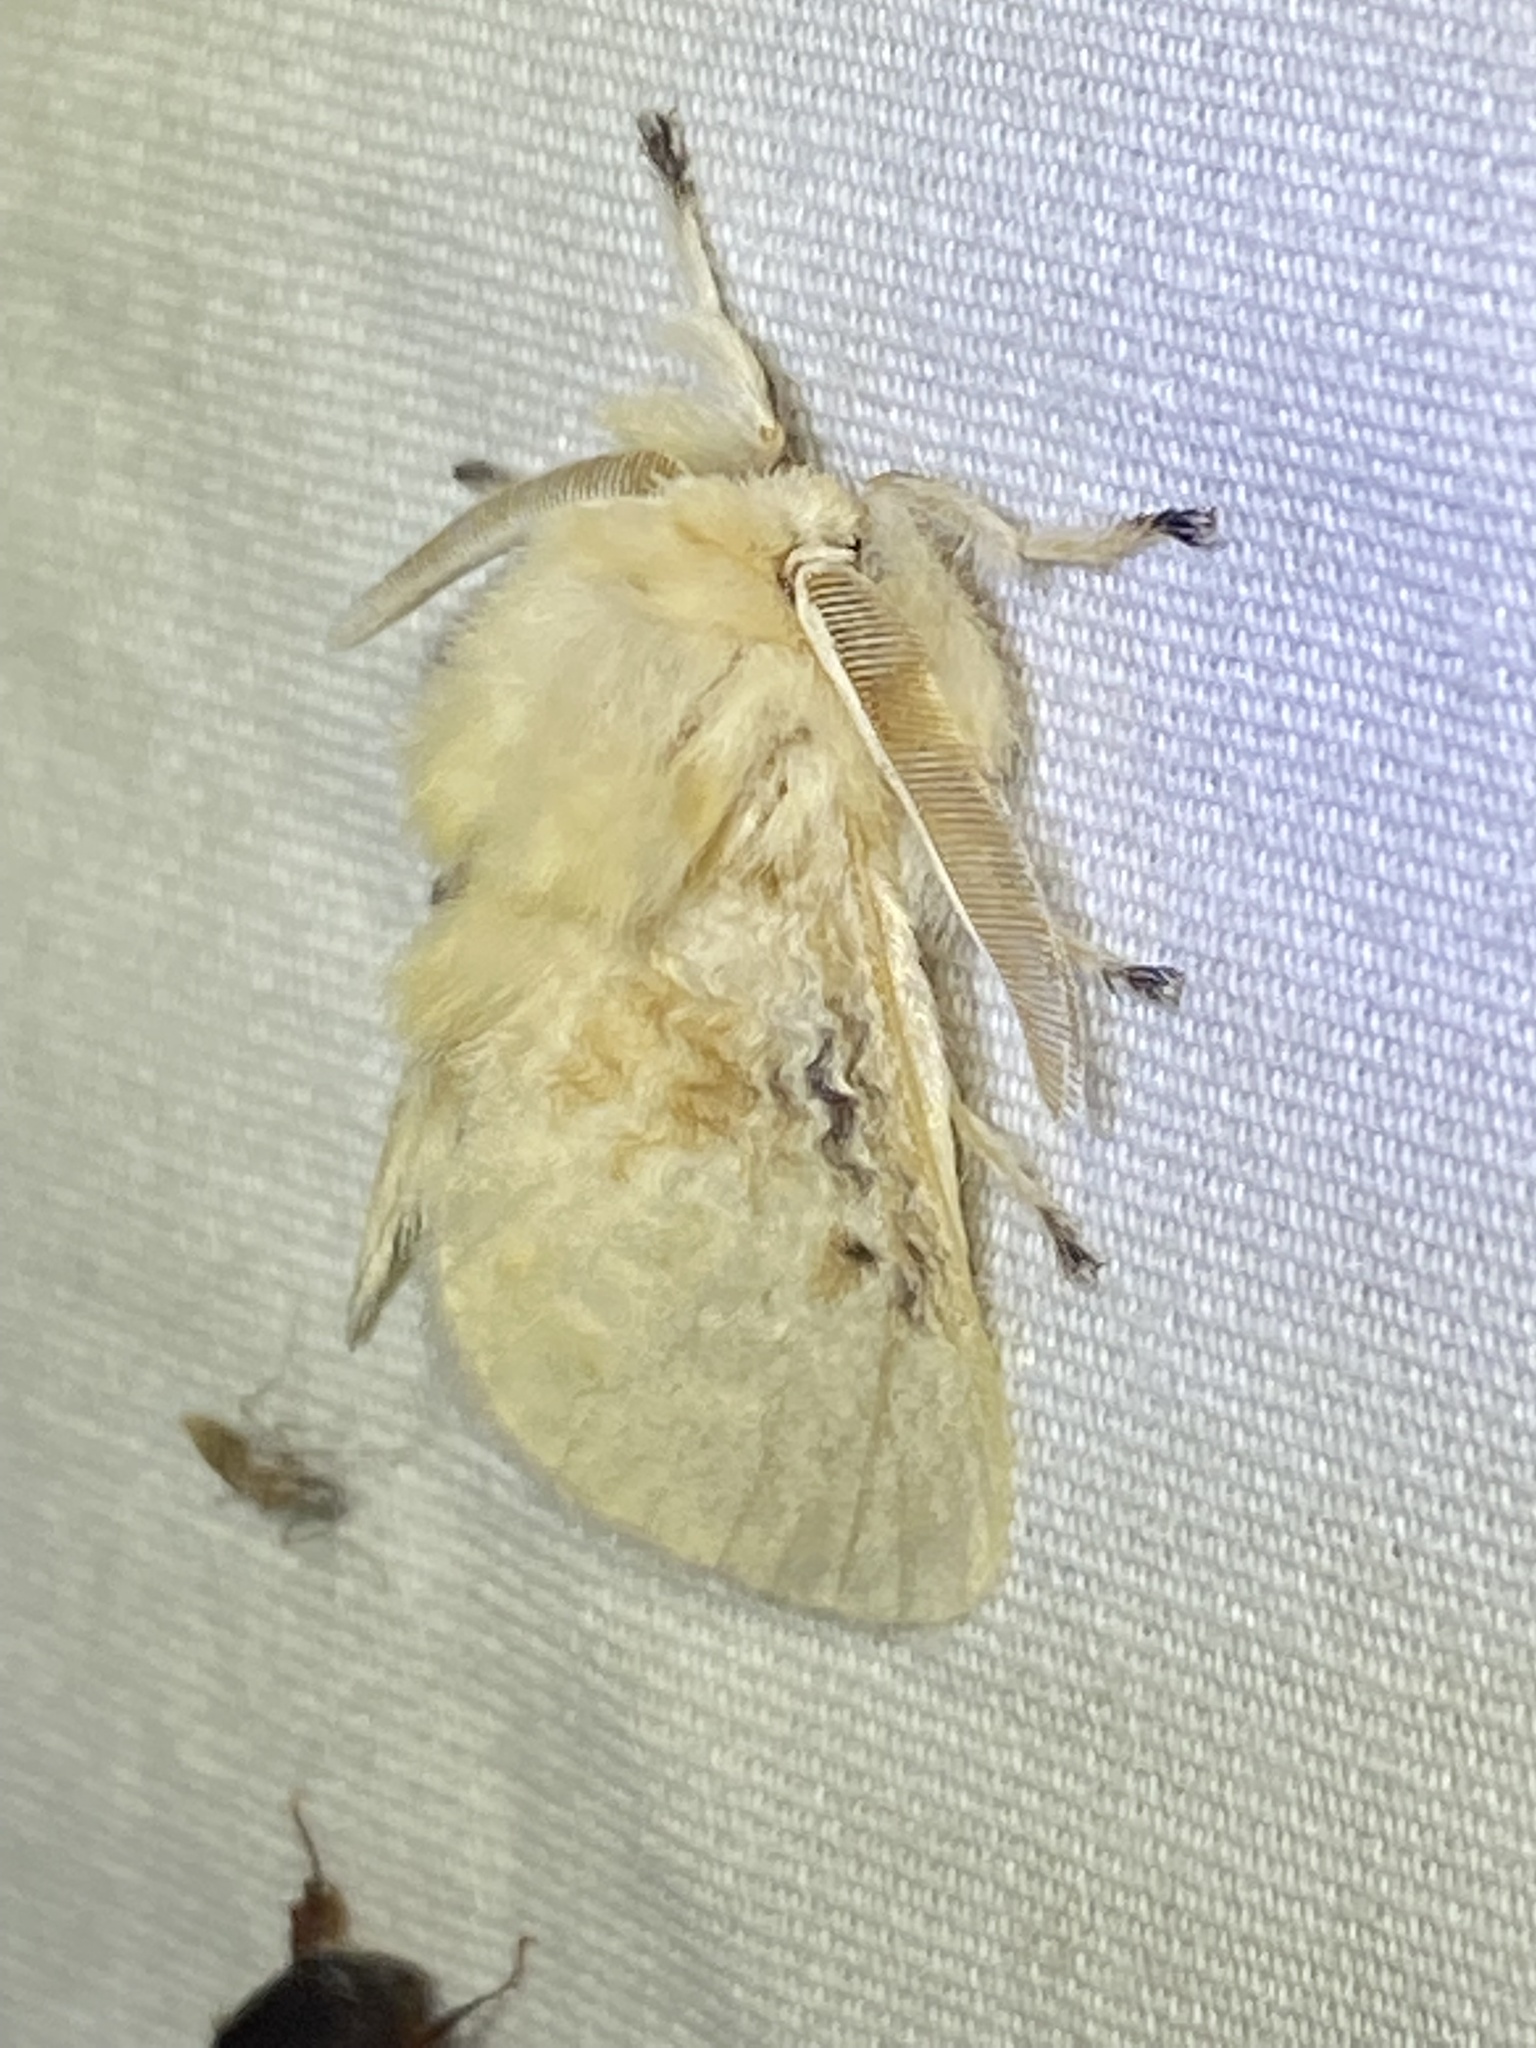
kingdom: Animalia
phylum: Arthropoda
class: Insecta
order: Lepidoptera
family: Megalopygidae
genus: Megalopyge
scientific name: Megalopyge crispata
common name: Black-waved flannel moth
